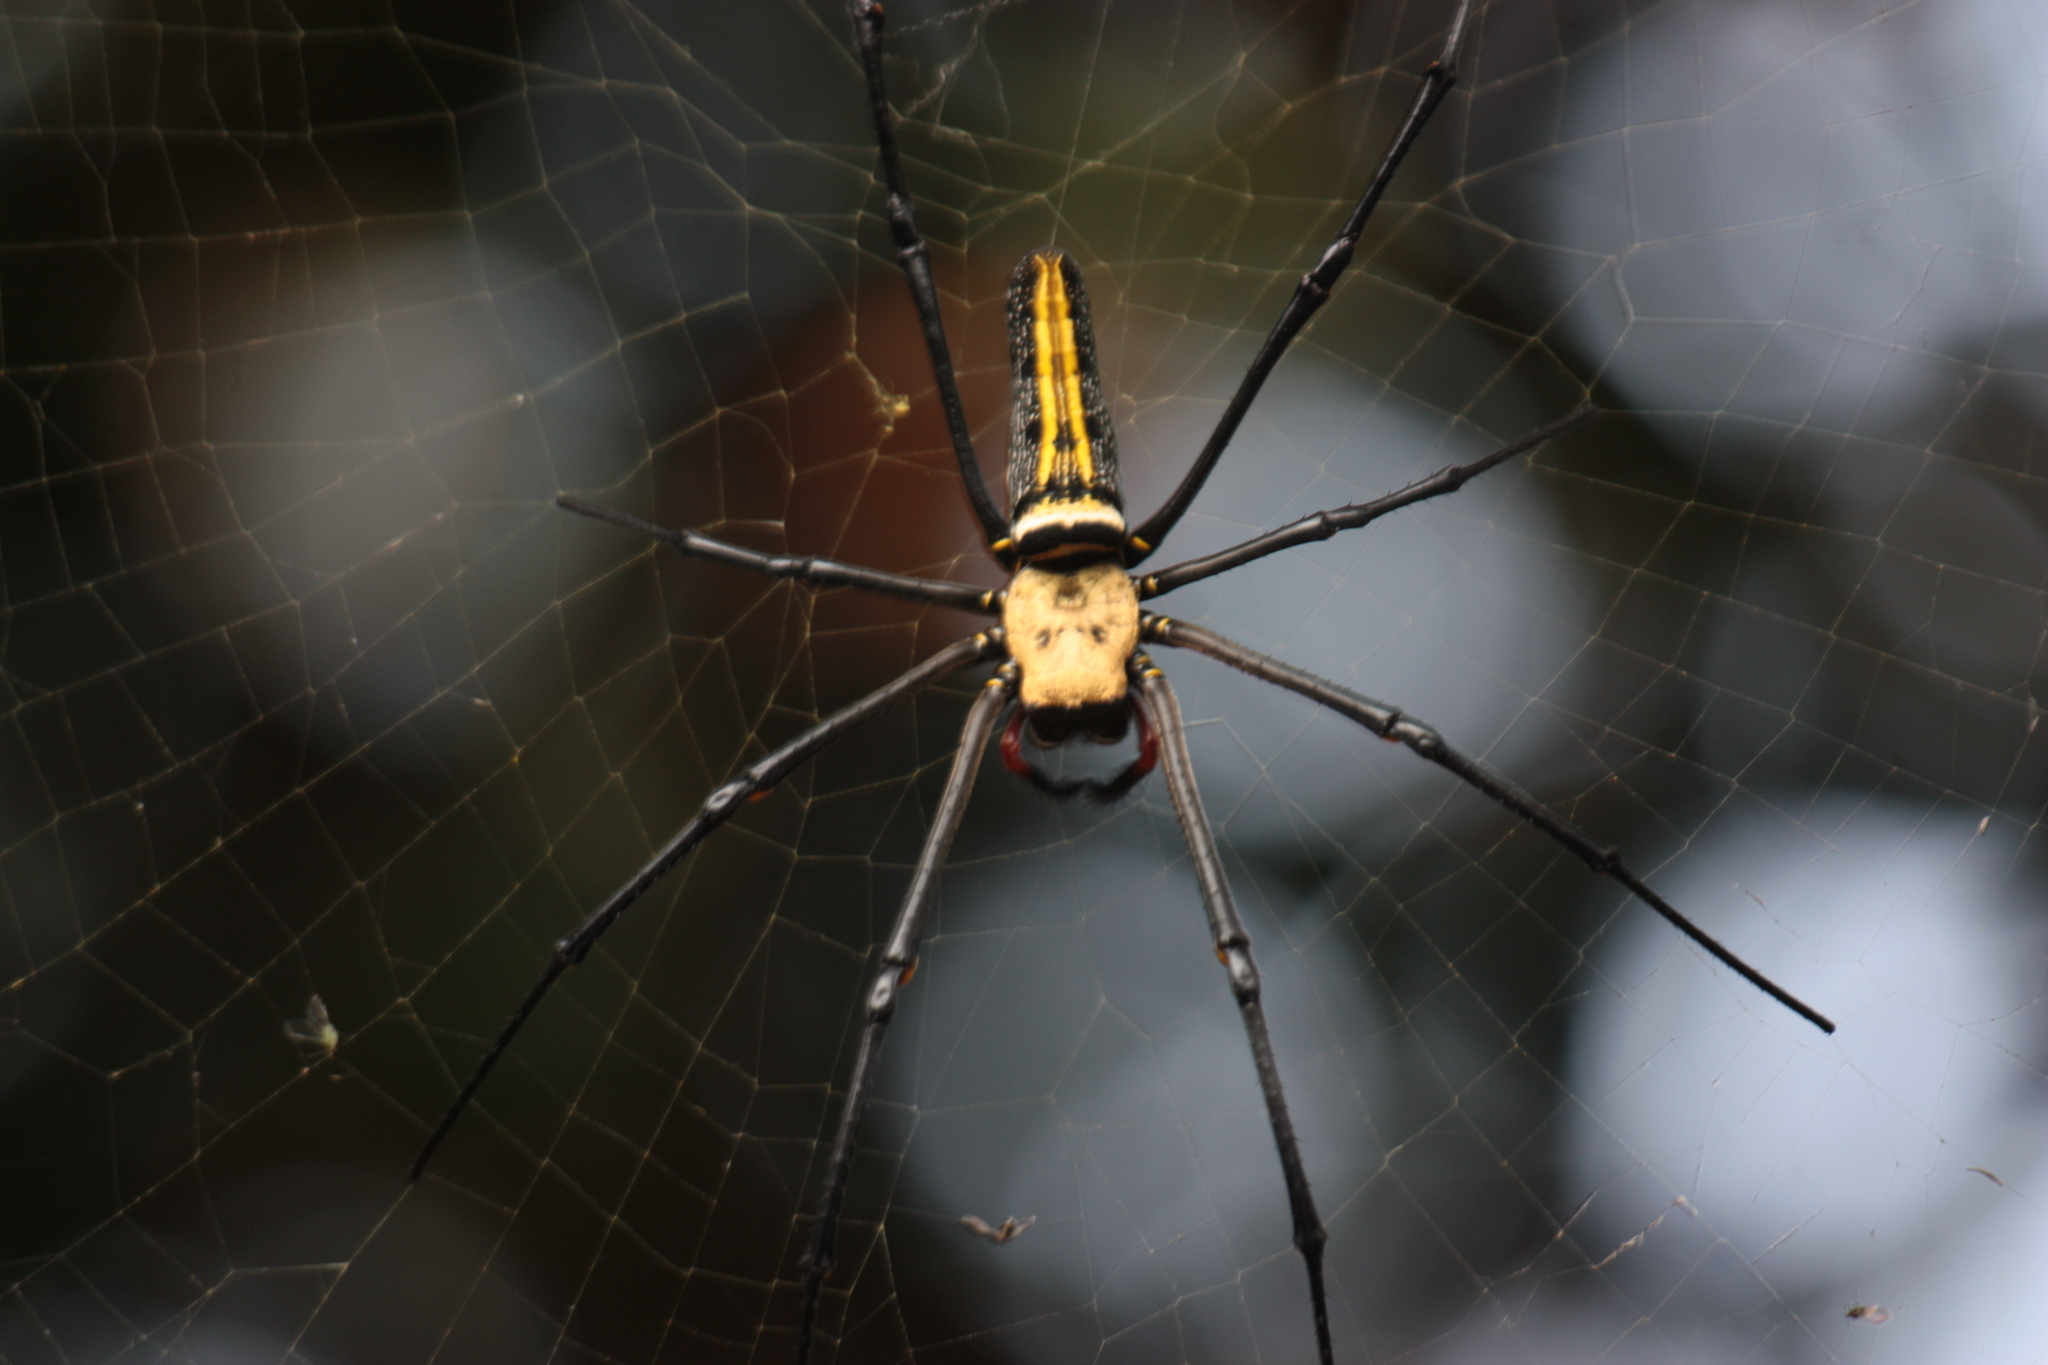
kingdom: Animalia
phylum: Arthropoda
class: Arachnida
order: Araneae
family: Araneidae
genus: Nephila
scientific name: Nephila pilipes
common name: Giant golden orb weaver
